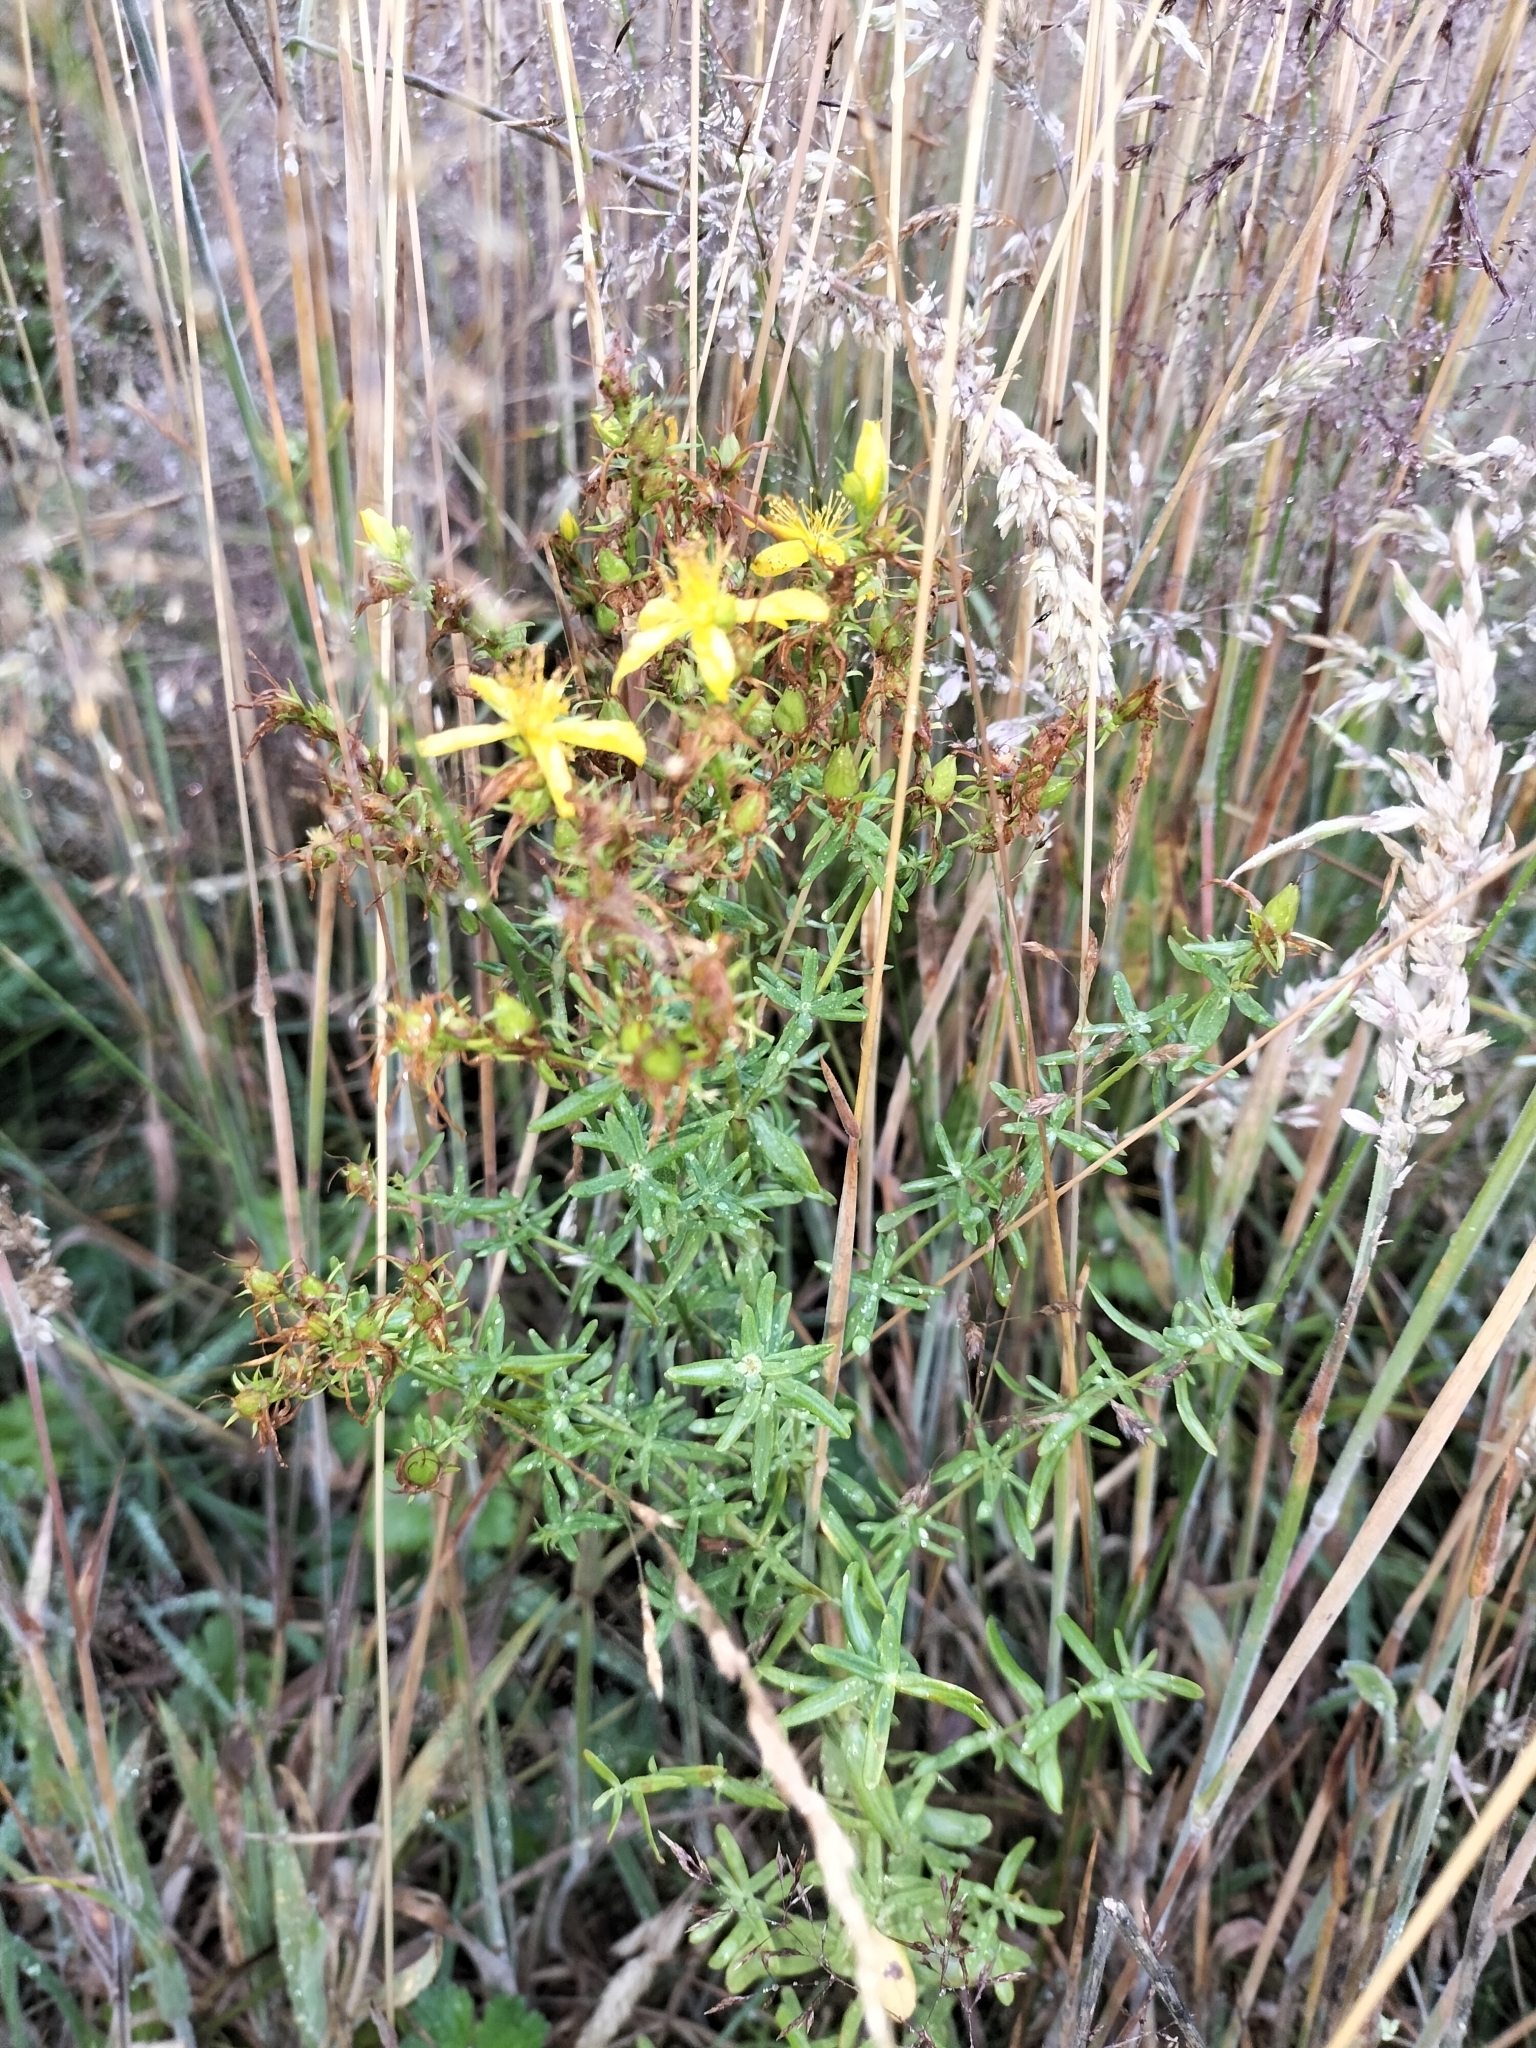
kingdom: Plantae
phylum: Tracheophyta
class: Magnoliopsida
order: Malpighiales
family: Hypericaceae
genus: Hypericum
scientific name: Hypericum perforatum
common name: Common st. johnswort
